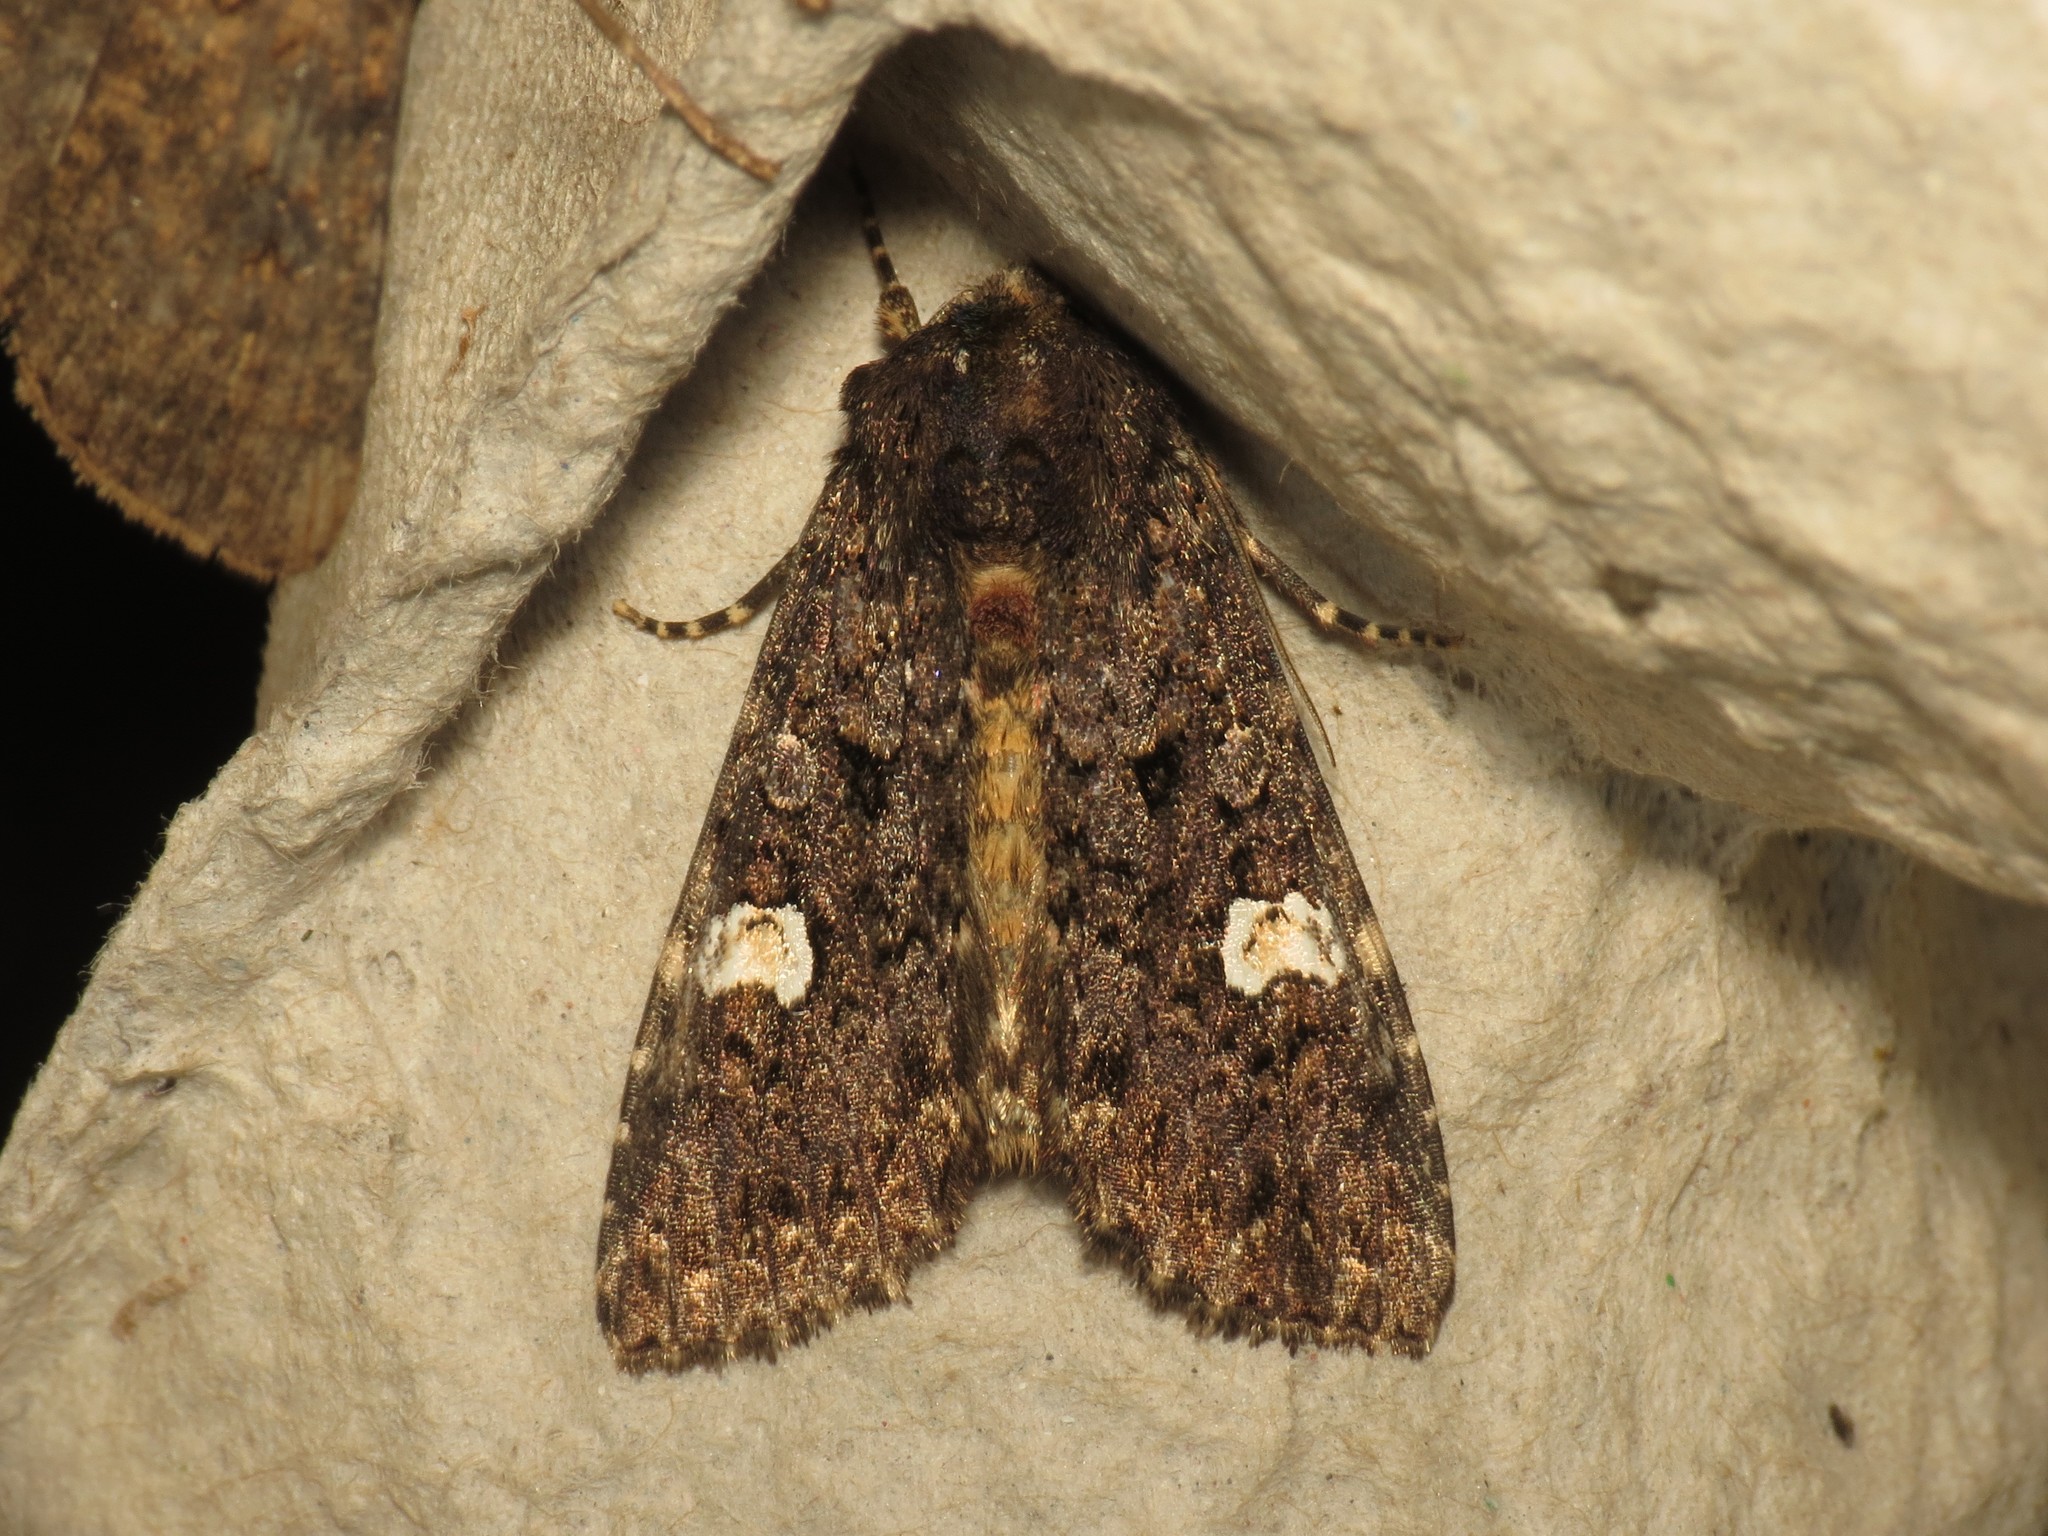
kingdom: Animalia
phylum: Arthropoda
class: Insecta
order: Lepidoptera
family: Noctuidae
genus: Melanchra
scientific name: Melanchra persicariae
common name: Dot moth
